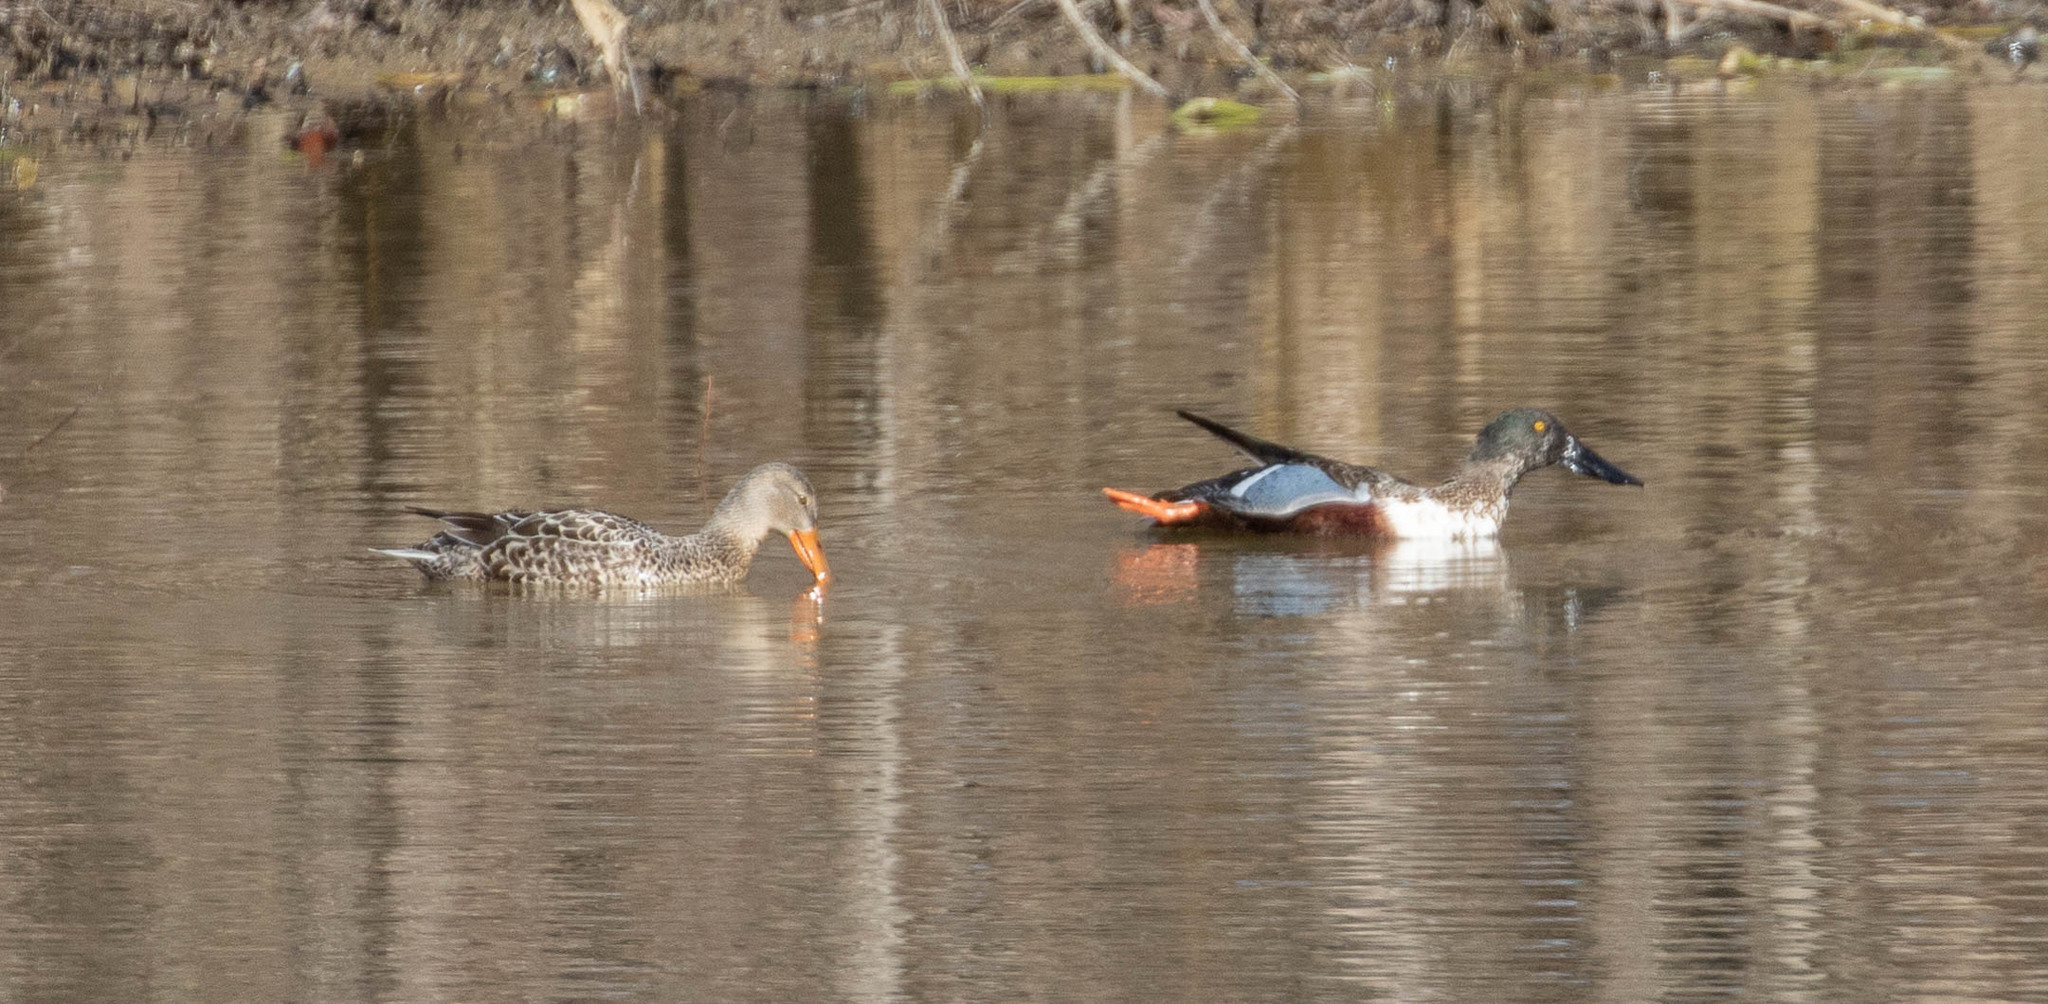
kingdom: Animalia
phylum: Chordata
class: Aves
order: Anseriformes
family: Anatidae
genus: Spatula
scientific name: Spatula clypeata
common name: Northern shoveler
